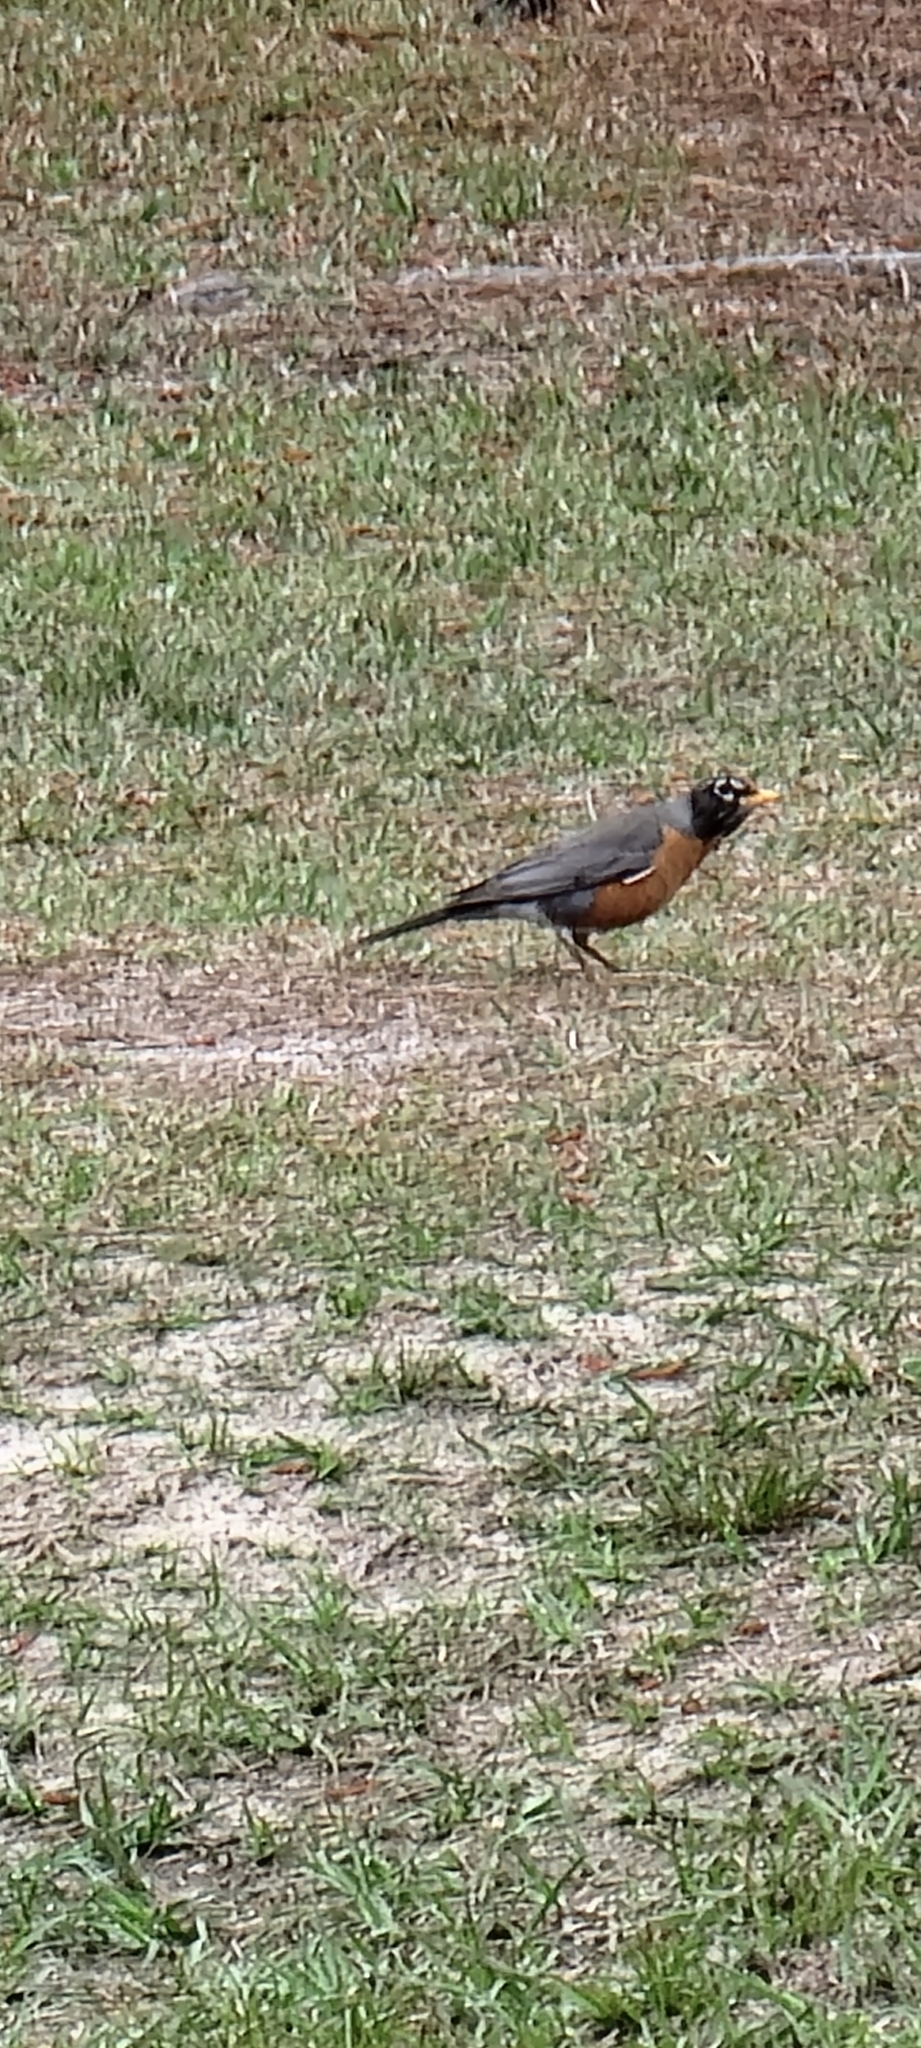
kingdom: Animalia
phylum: Chordata
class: Aves
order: Passeriformes
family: Turdidae
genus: Turdus
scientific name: Turdus migratorius
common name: American robin
